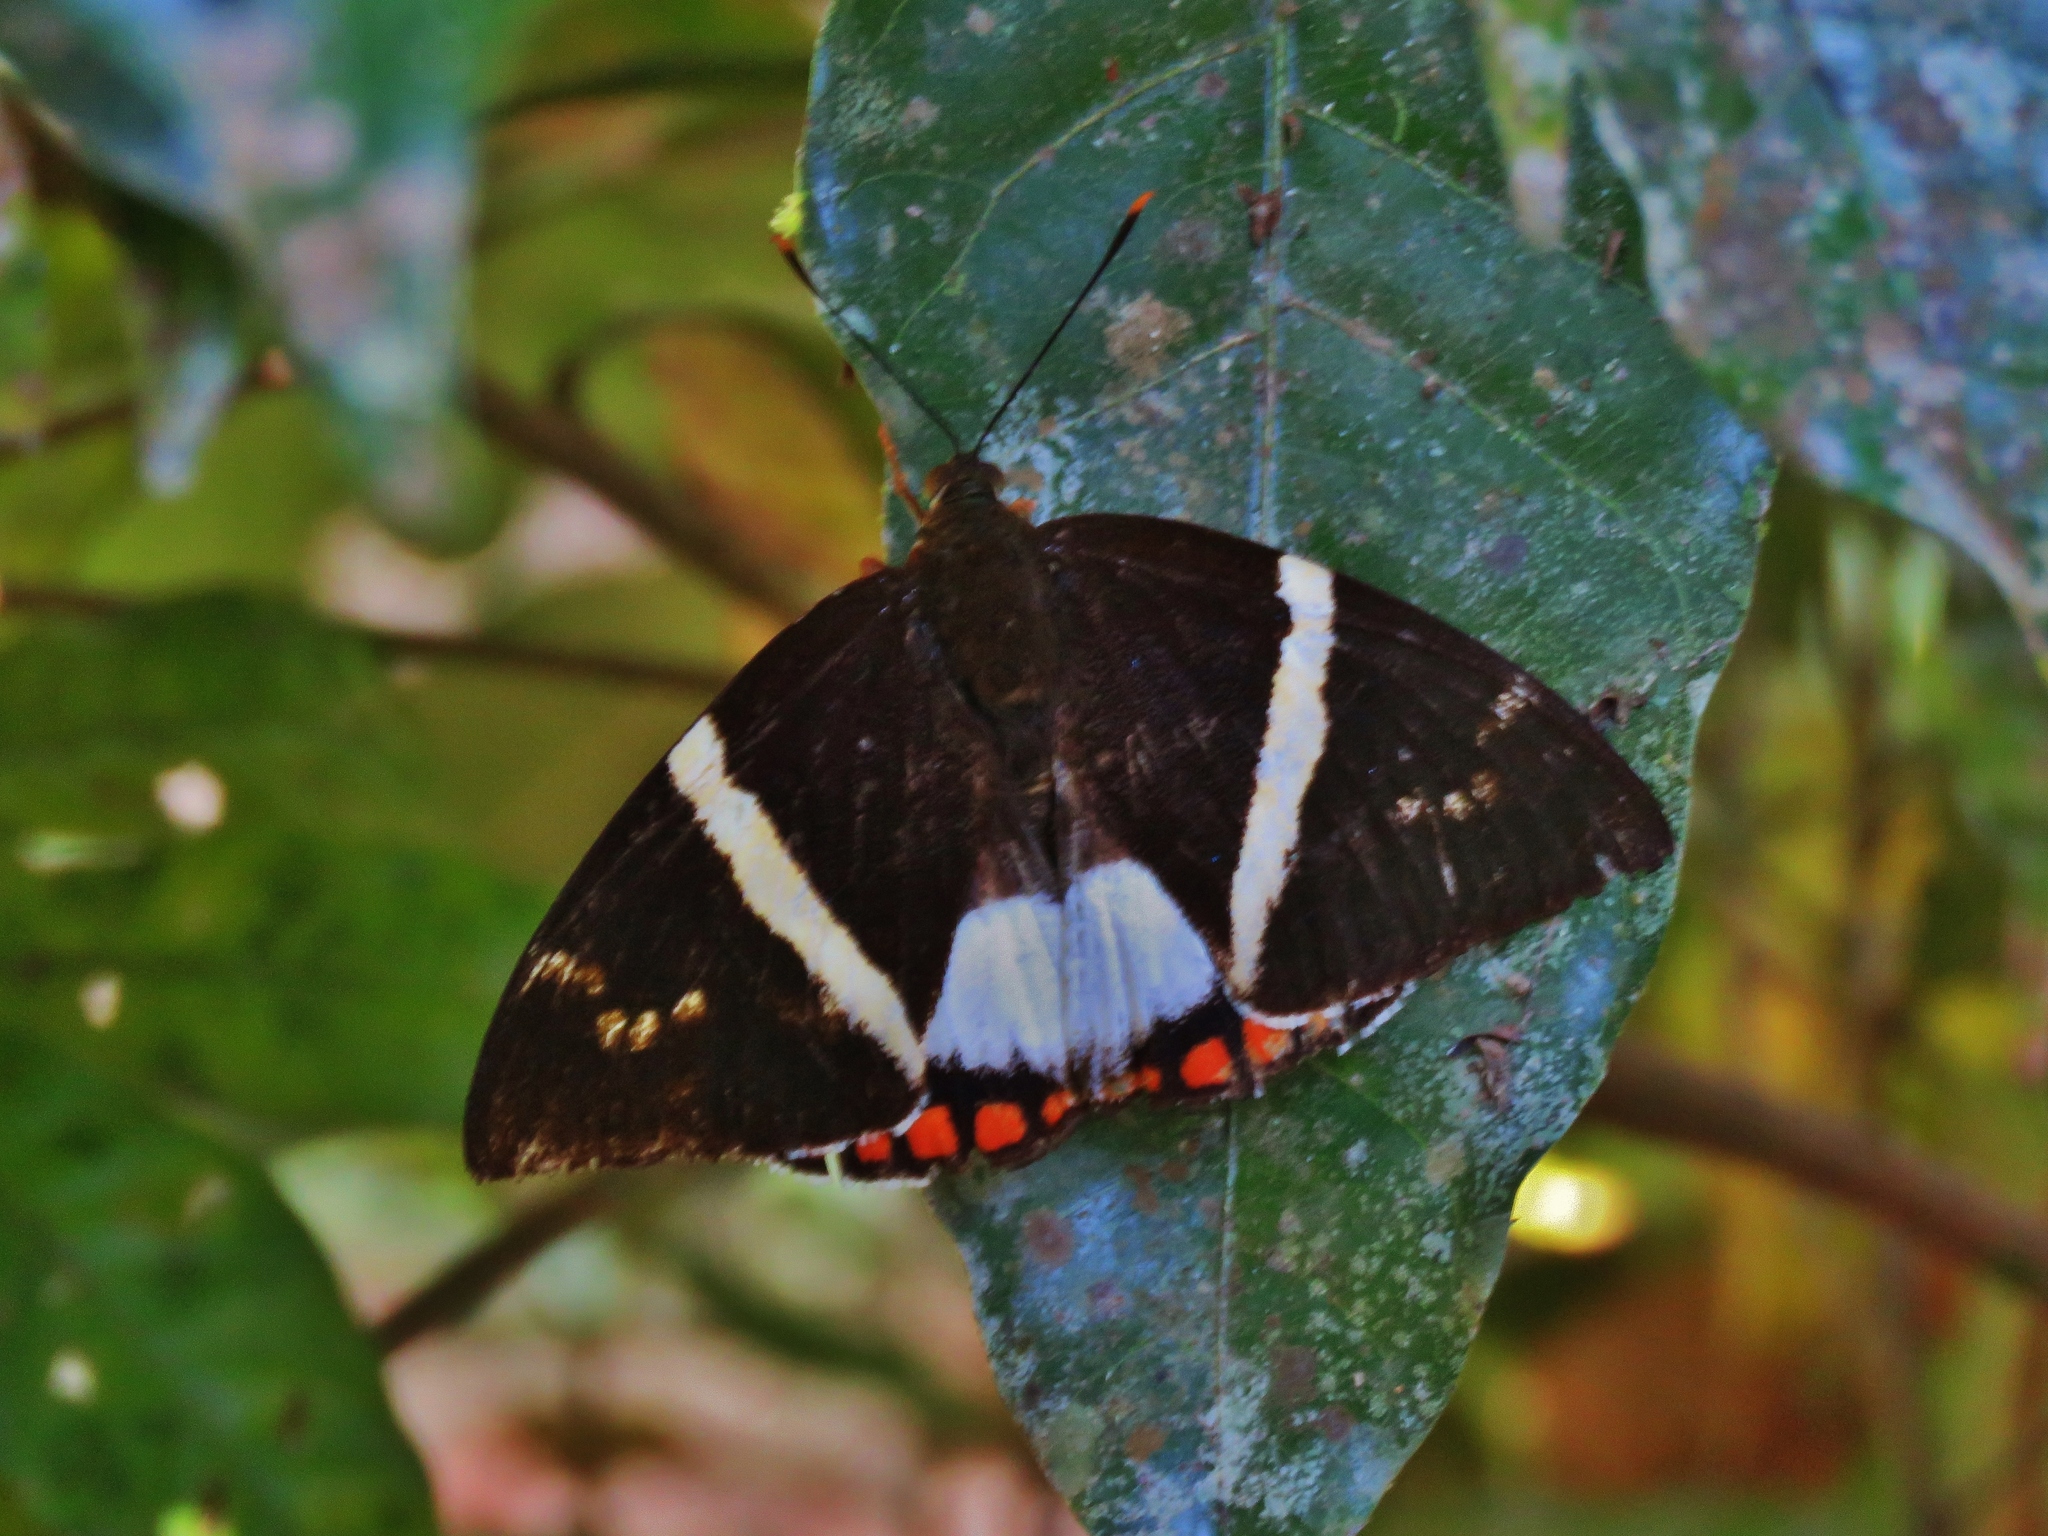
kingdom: Animalia
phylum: Arthropoda
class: Insecta
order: Lepidoptera
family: Castniidae
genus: Castnia
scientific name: Castnia licus
